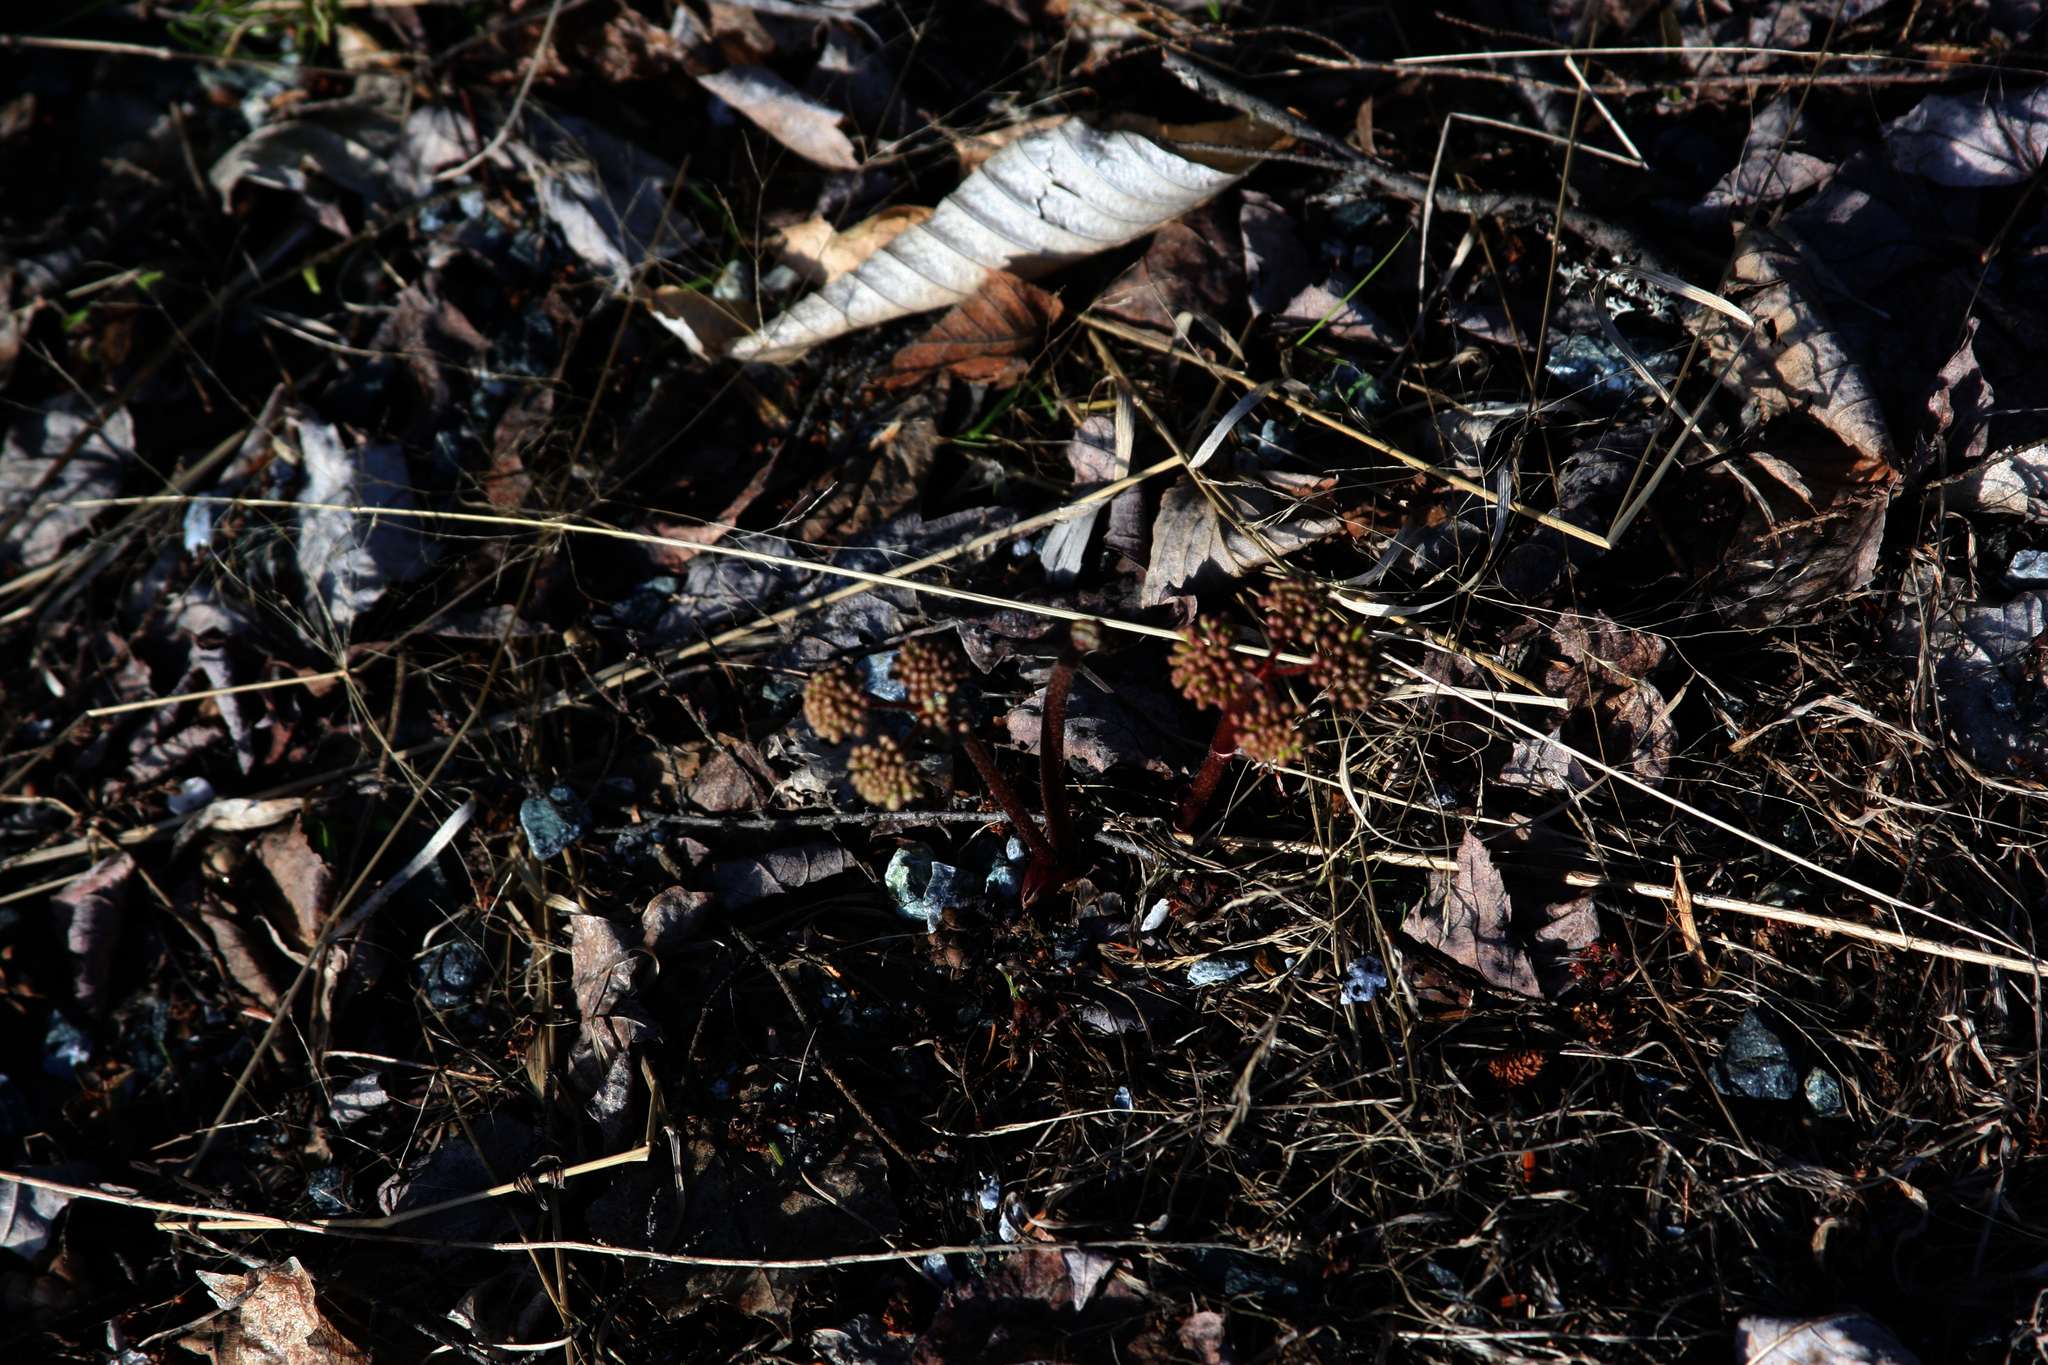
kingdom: Plantae
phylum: Tracheophyta
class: Magnoliopsida
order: Apiales
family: Araliaceae
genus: Aralia
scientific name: Aralia nudicaulis
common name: Wild sarsaparilla
